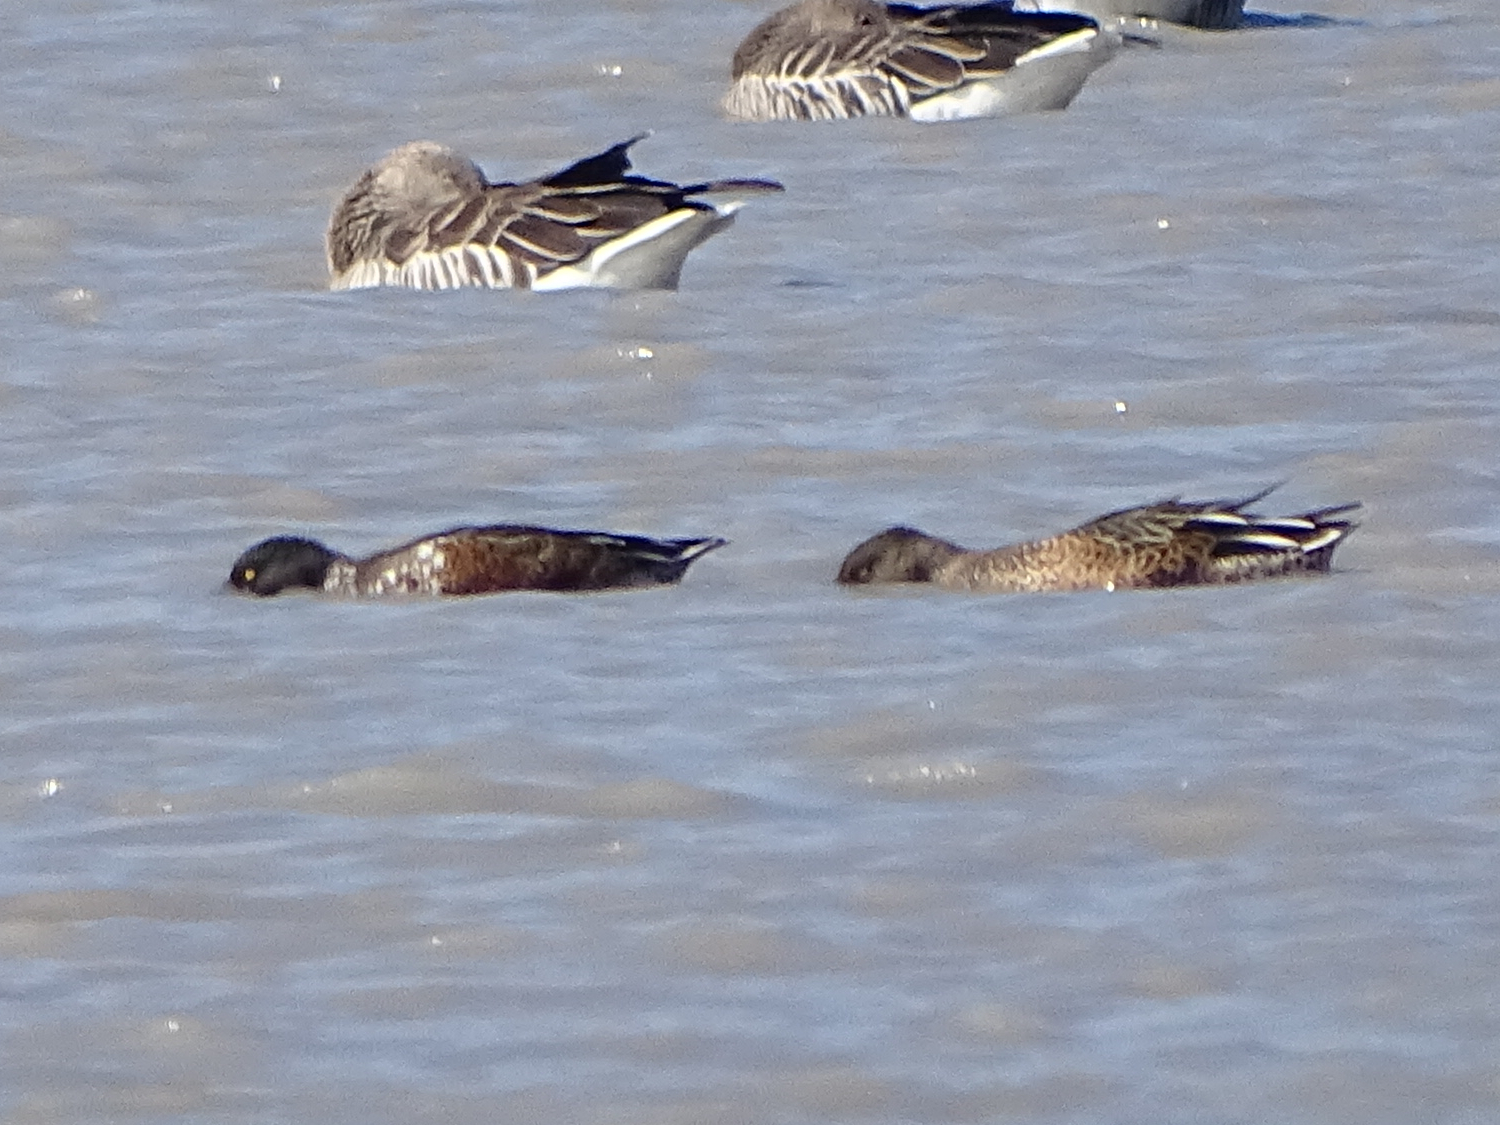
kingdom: Animalia
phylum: Chordata
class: Aves
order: Anseriformes
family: Anatidae
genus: Spatula
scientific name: Spatula clypeata
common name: Northern shoveler
